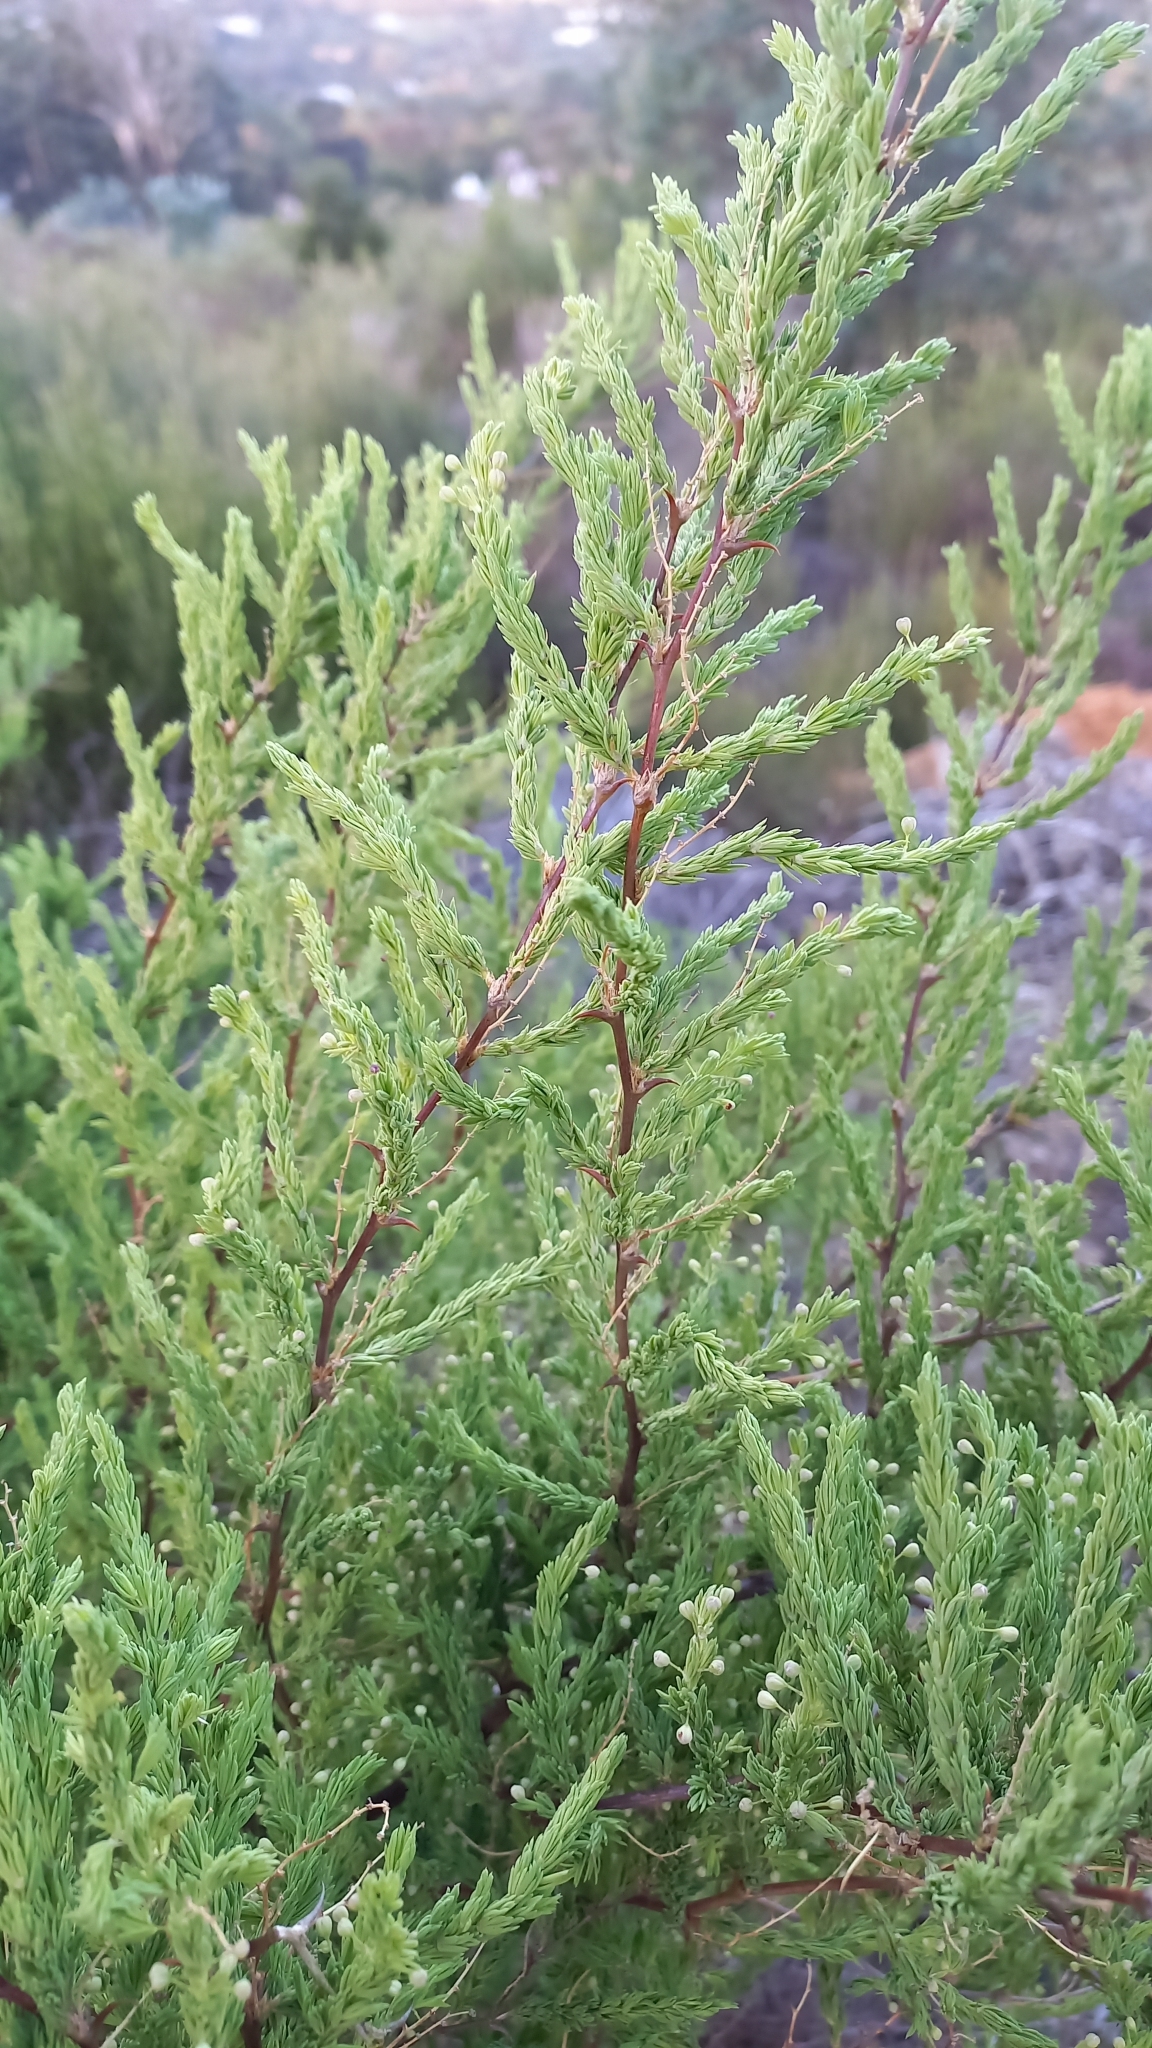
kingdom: Plantae
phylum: Tracheophyta
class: Liliopsida
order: Asparagales
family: Asparagaceae
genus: Asparagus
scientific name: Asparagus rubicundus
